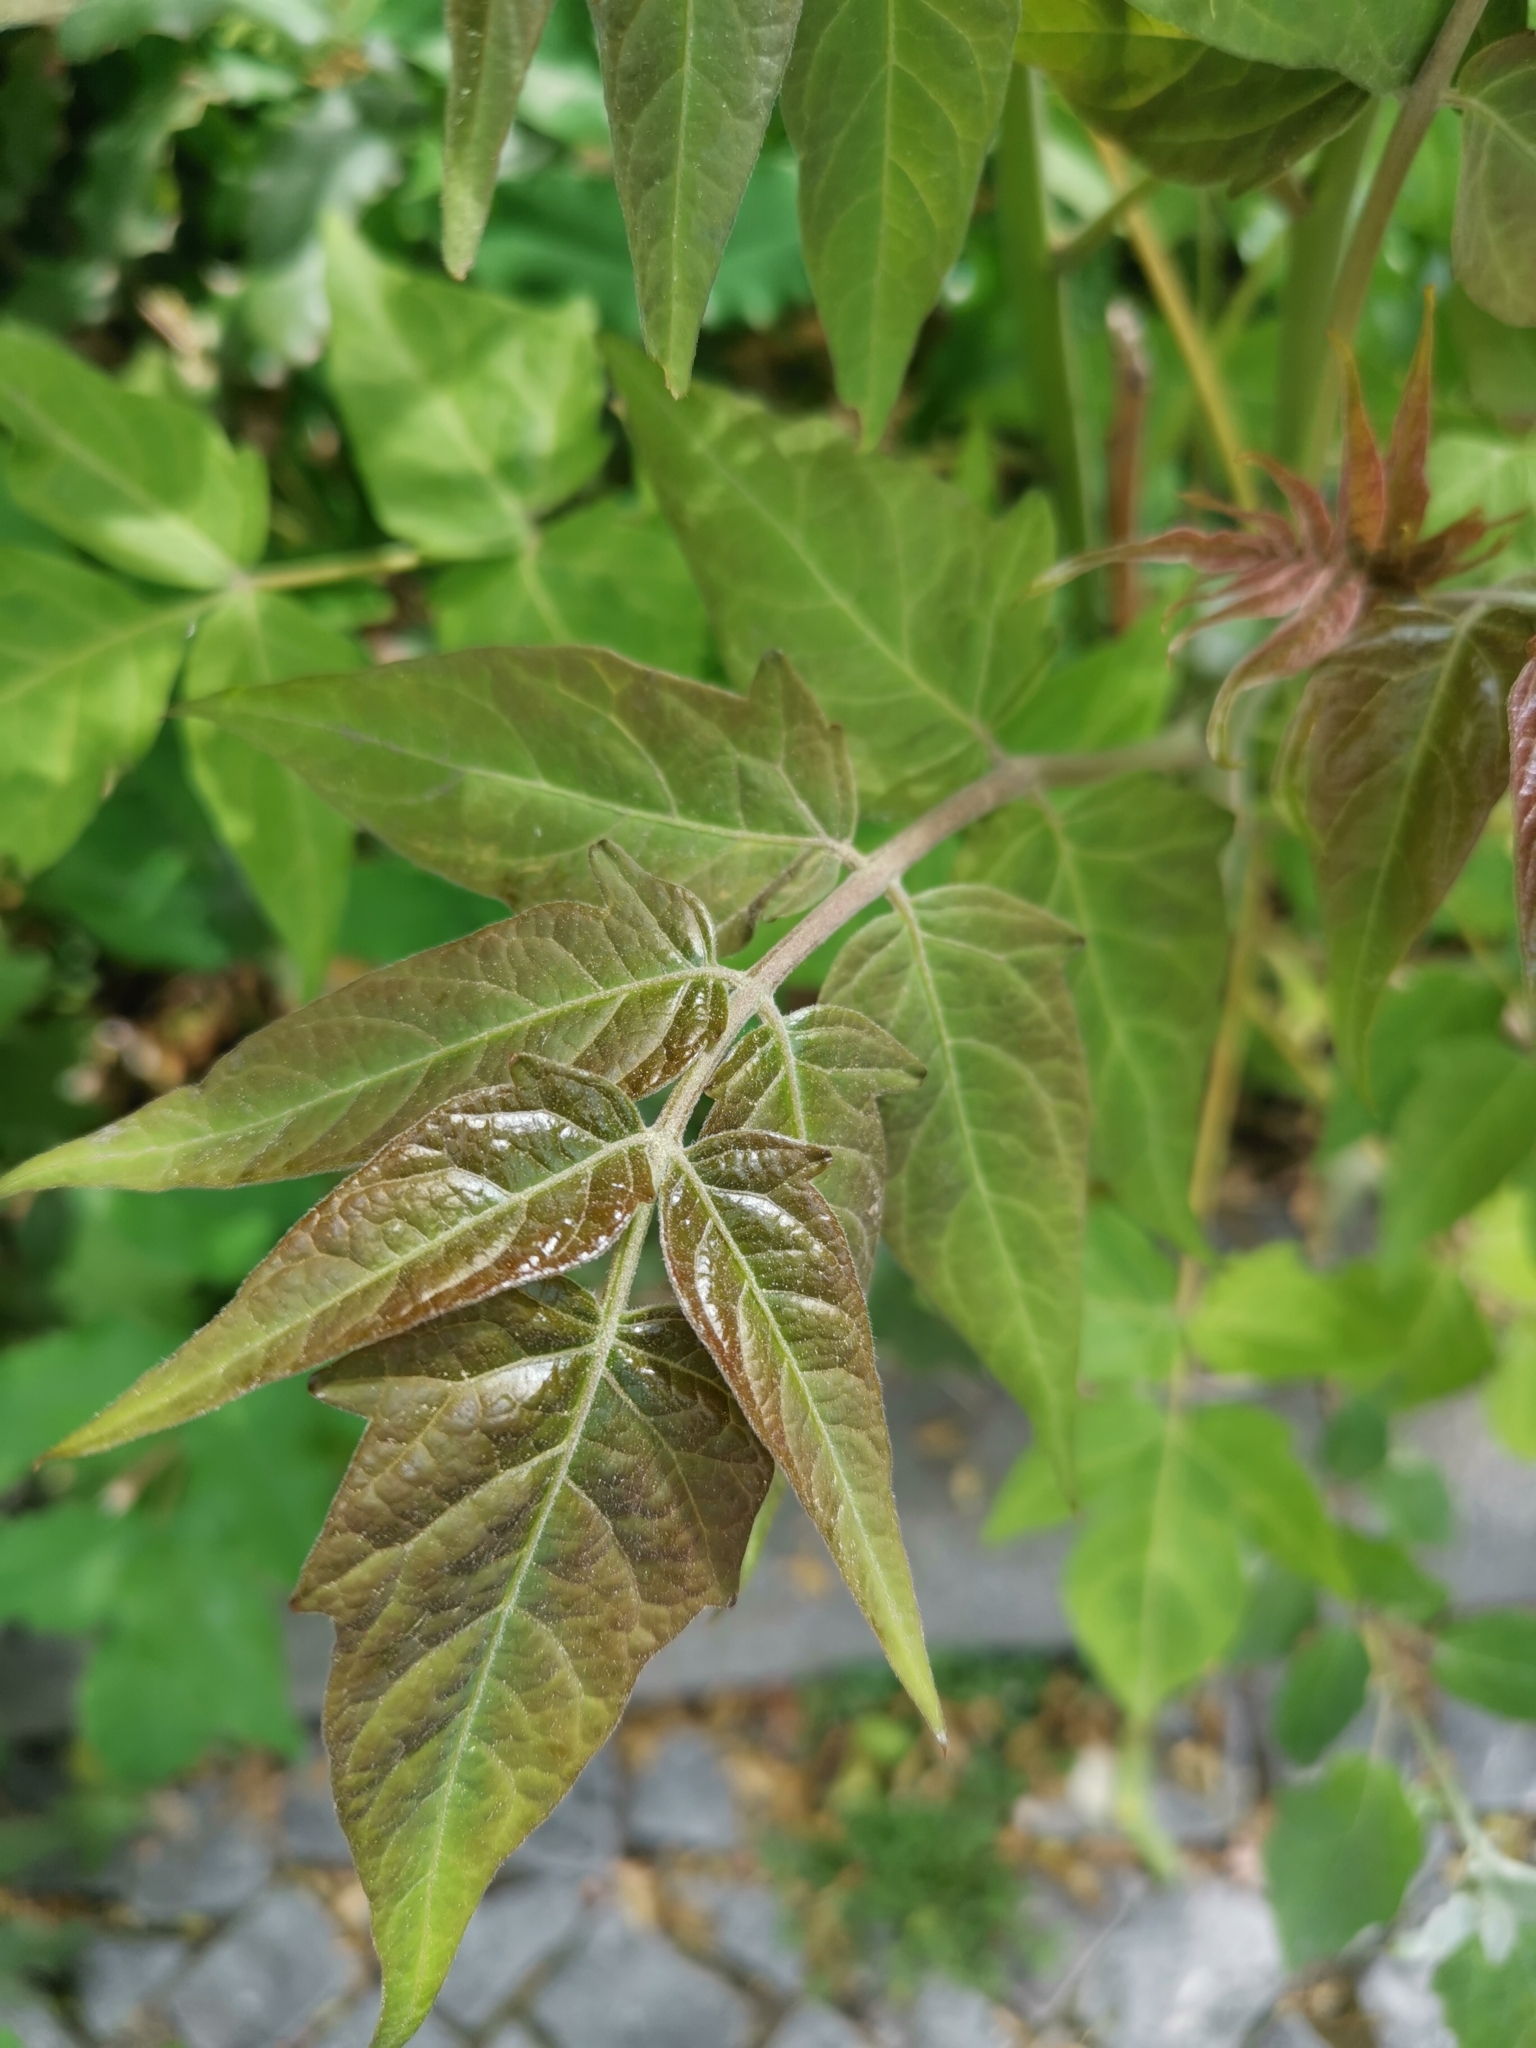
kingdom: Plantae
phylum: Tracheophyta
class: Magnoliopsida
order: Sapindales
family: Simaroubaceae
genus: Ailanthus
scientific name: Ailanthus altissima
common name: Tree-of-heaven
